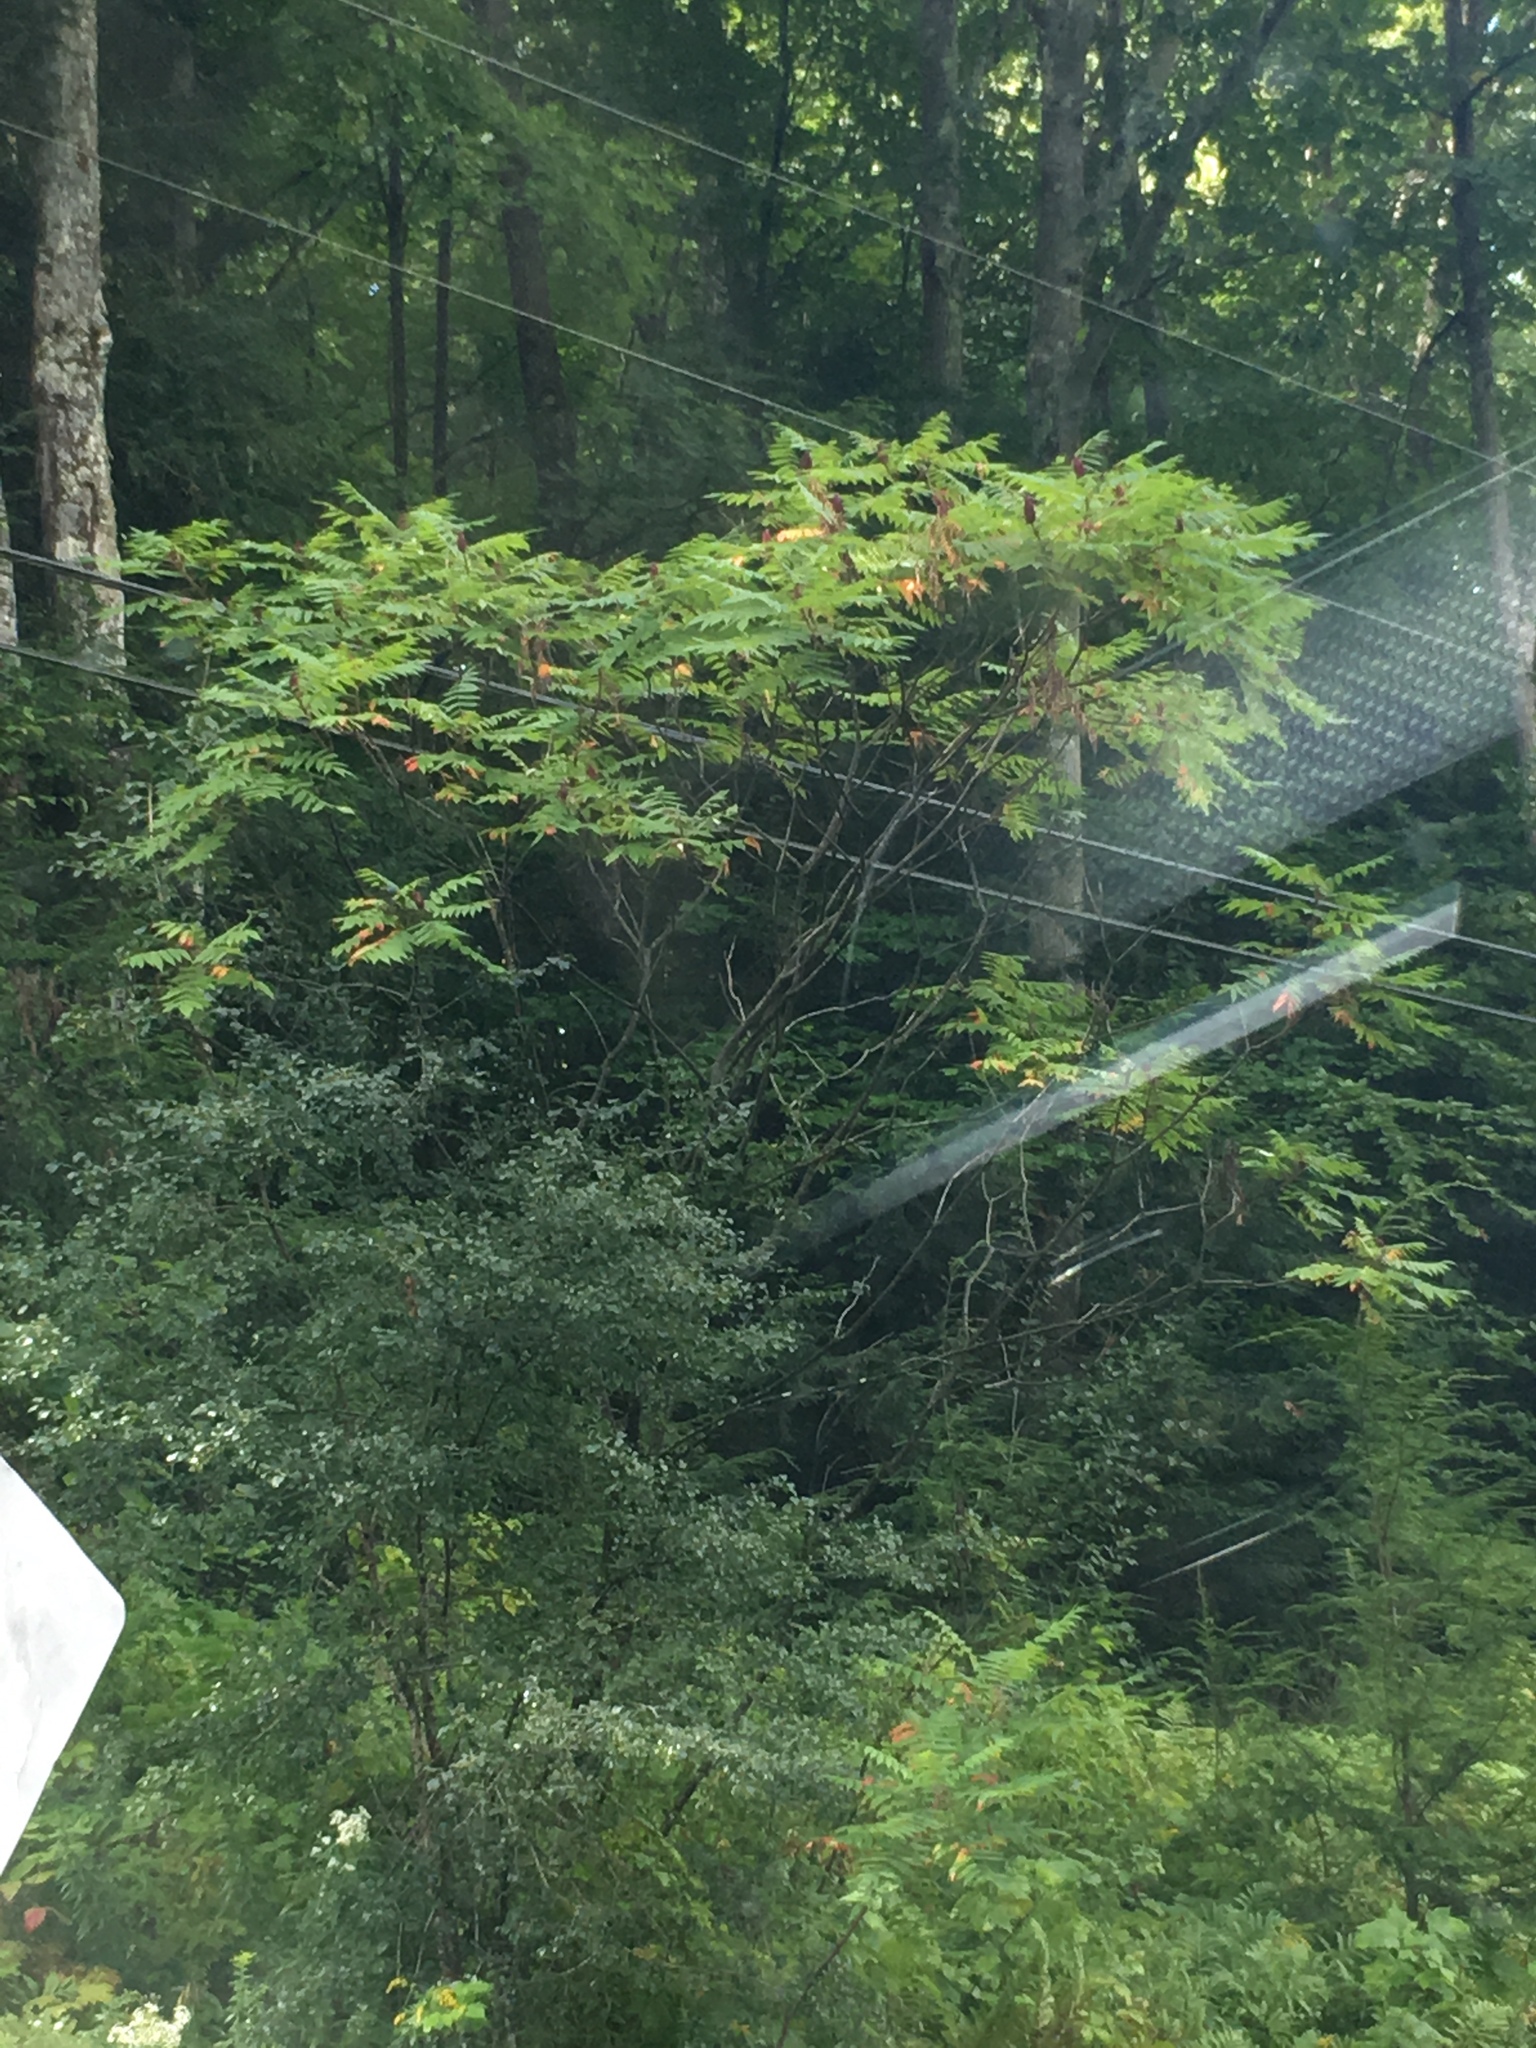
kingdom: Plantae
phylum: Tracheophyta
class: Magnoliopsida
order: Sapindales
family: Anacardiaceae
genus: Rhus
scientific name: Rhus typhina
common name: Staghorn sumac
